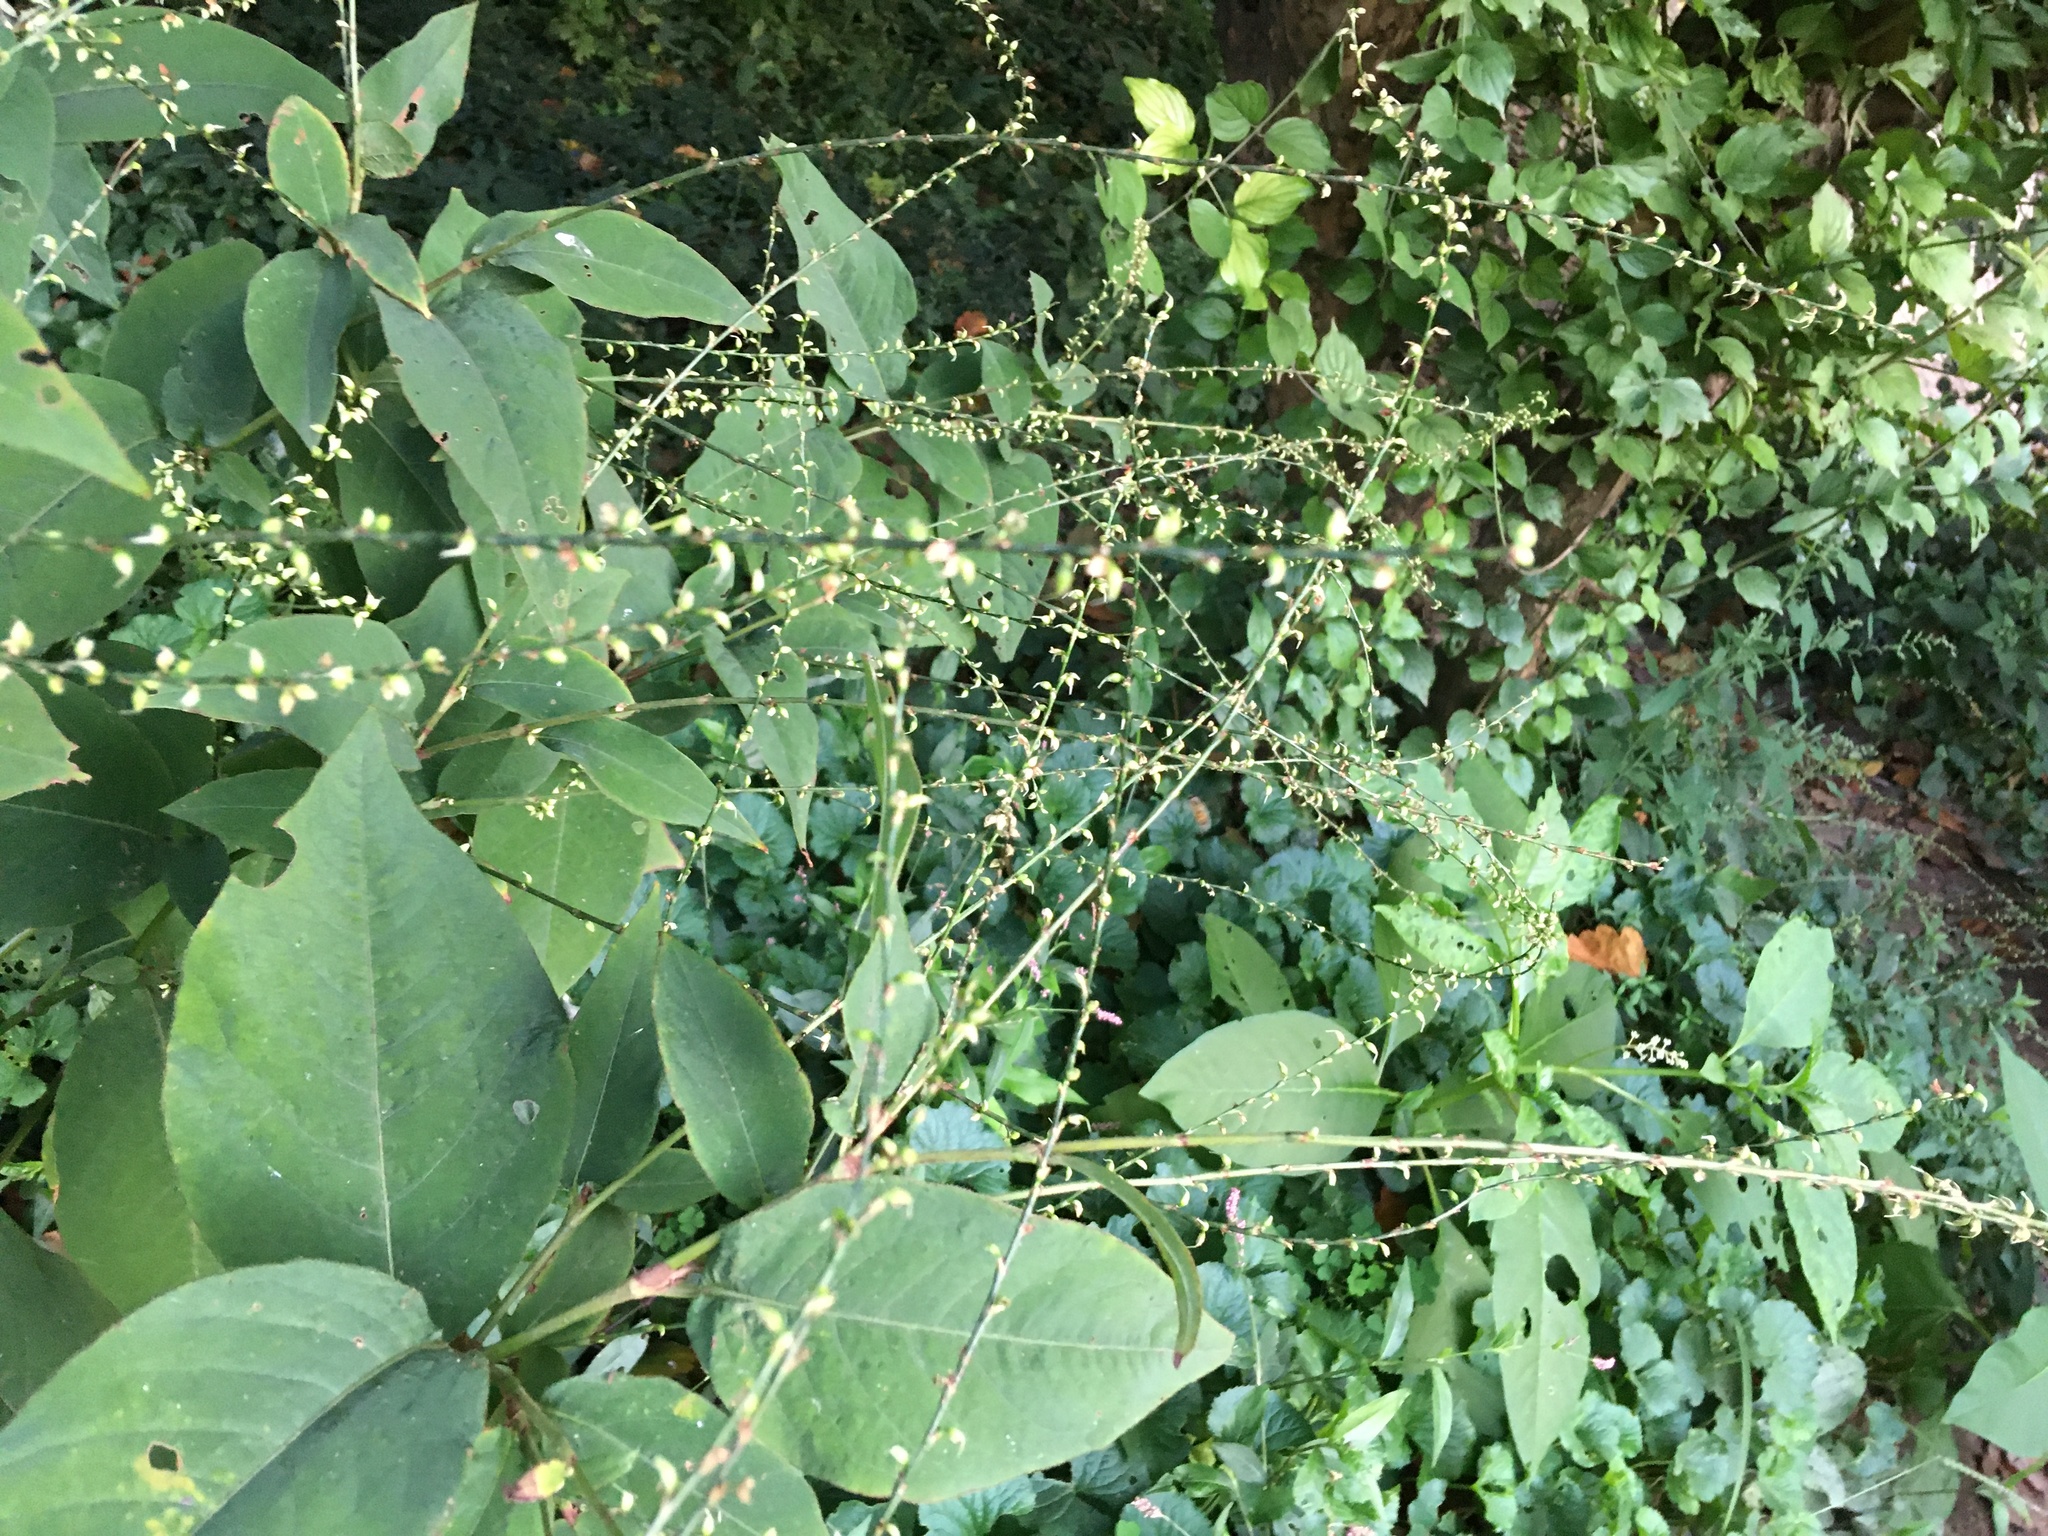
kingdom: Plantae
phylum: Tracheophyta
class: Magnoliopsida
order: Caryophyllales
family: Polygonaceae
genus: Persicaria
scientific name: Persicaria virginiana
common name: Jumpseed
